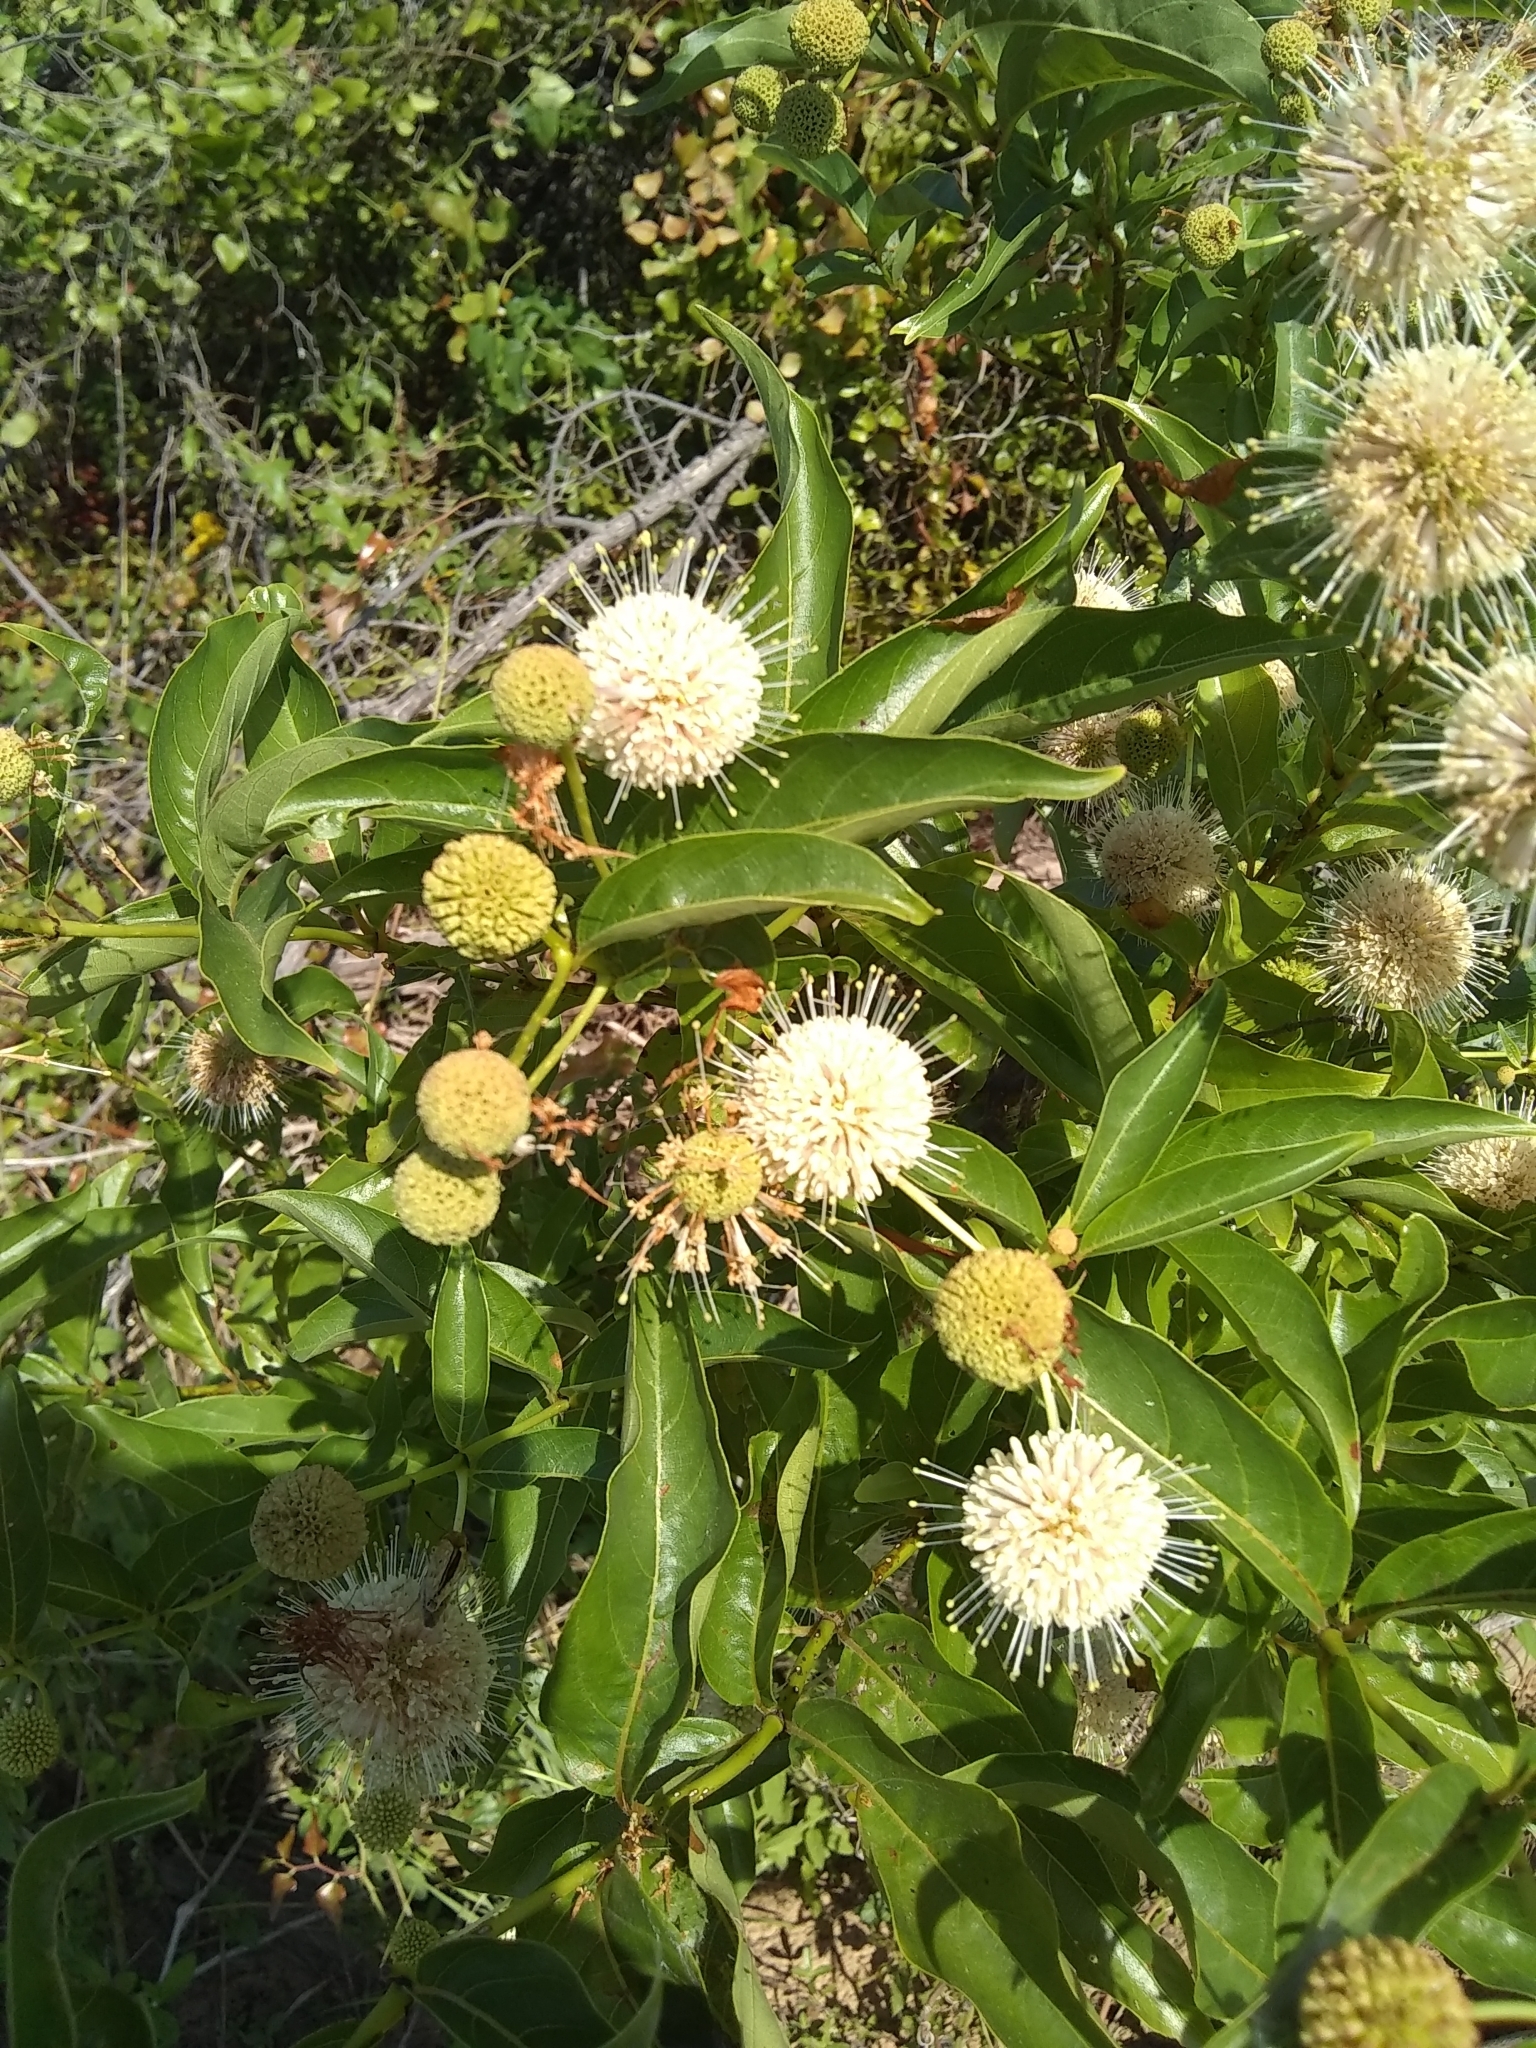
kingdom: Plantae
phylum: Tracheophyta
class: Magnoliopsida
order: Gentianales
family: Rubiaceae
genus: Cephalanthus
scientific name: Cephalanthus occidentalis
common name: Button-willow
